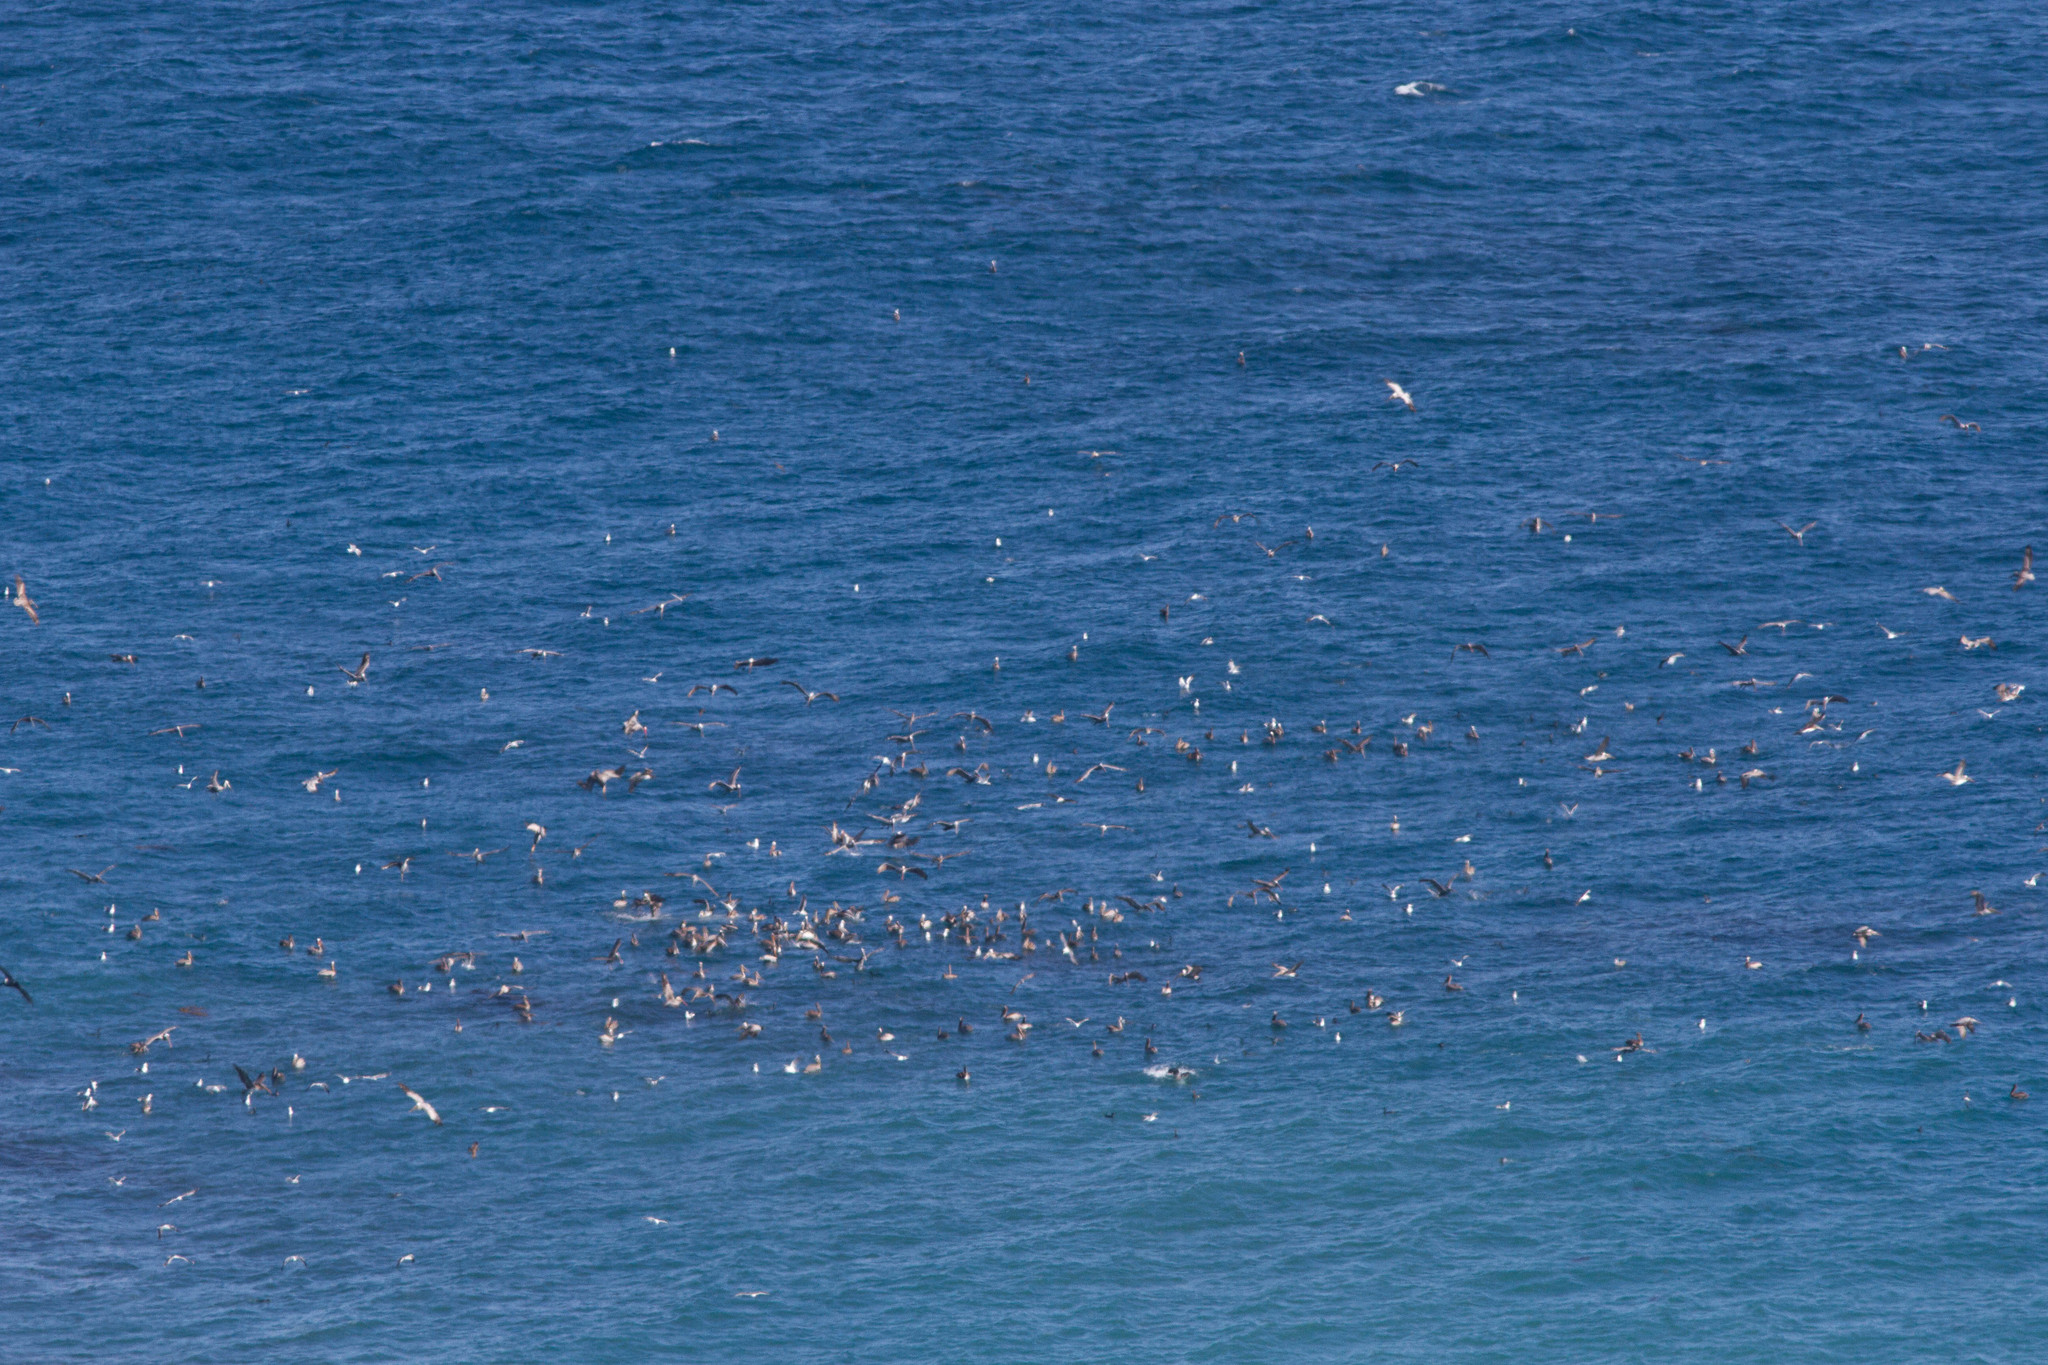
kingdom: Animalia
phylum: Chordata
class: Aves
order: Pelecaniformes
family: Pelecanidae
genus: Pelecanus
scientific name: Pelecanus occidentalis
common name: Brown pelican
